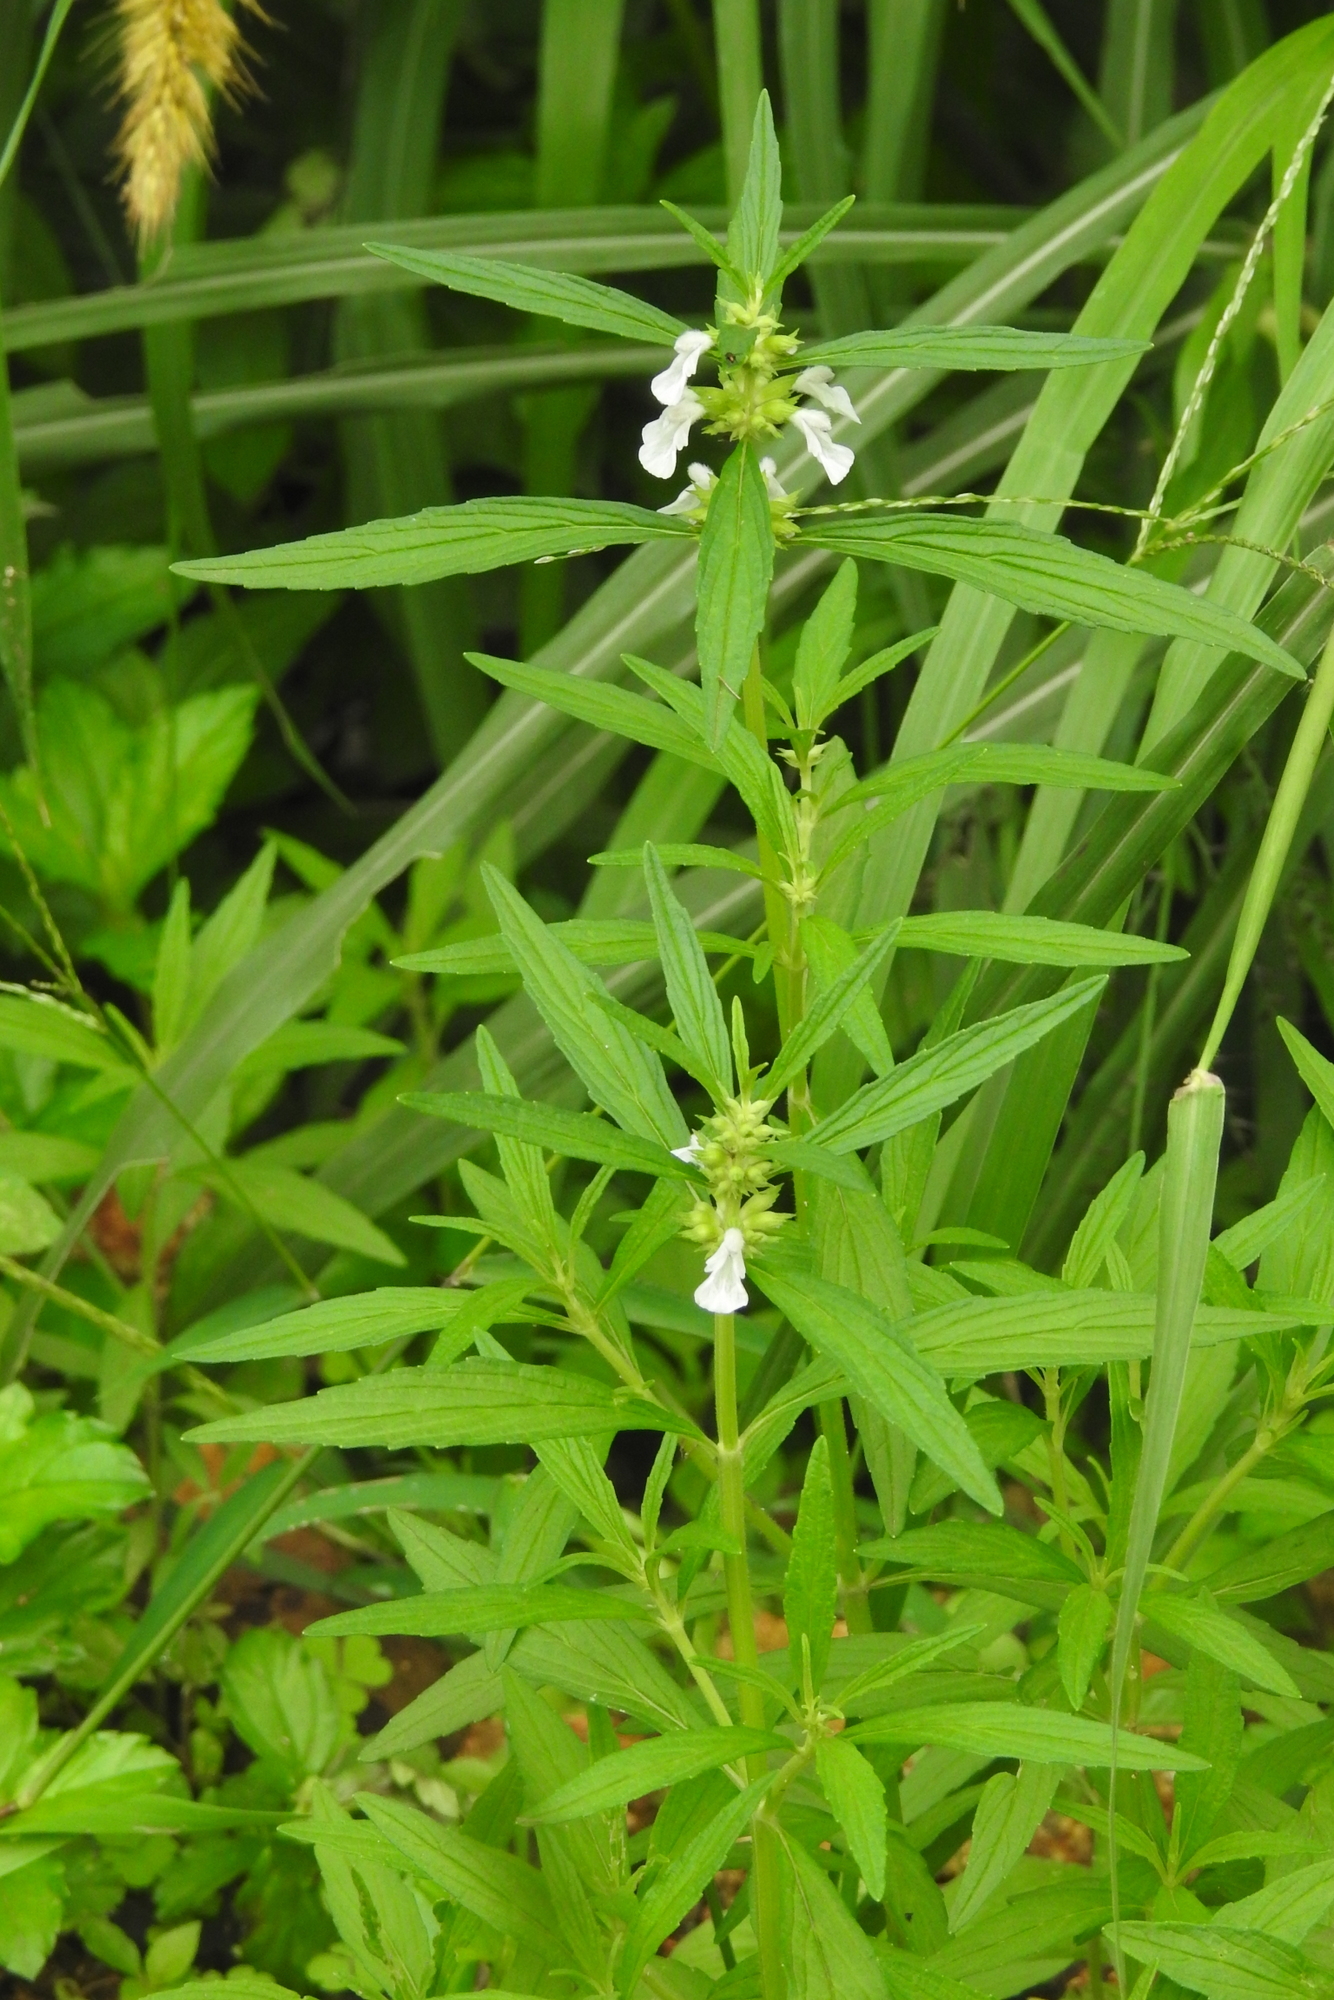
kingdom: Plantae
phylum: Tracheophyta
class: Magnoliopsida
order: Lamiales
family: Lamiaceae
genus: Leucas
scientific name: Leucas aspera
